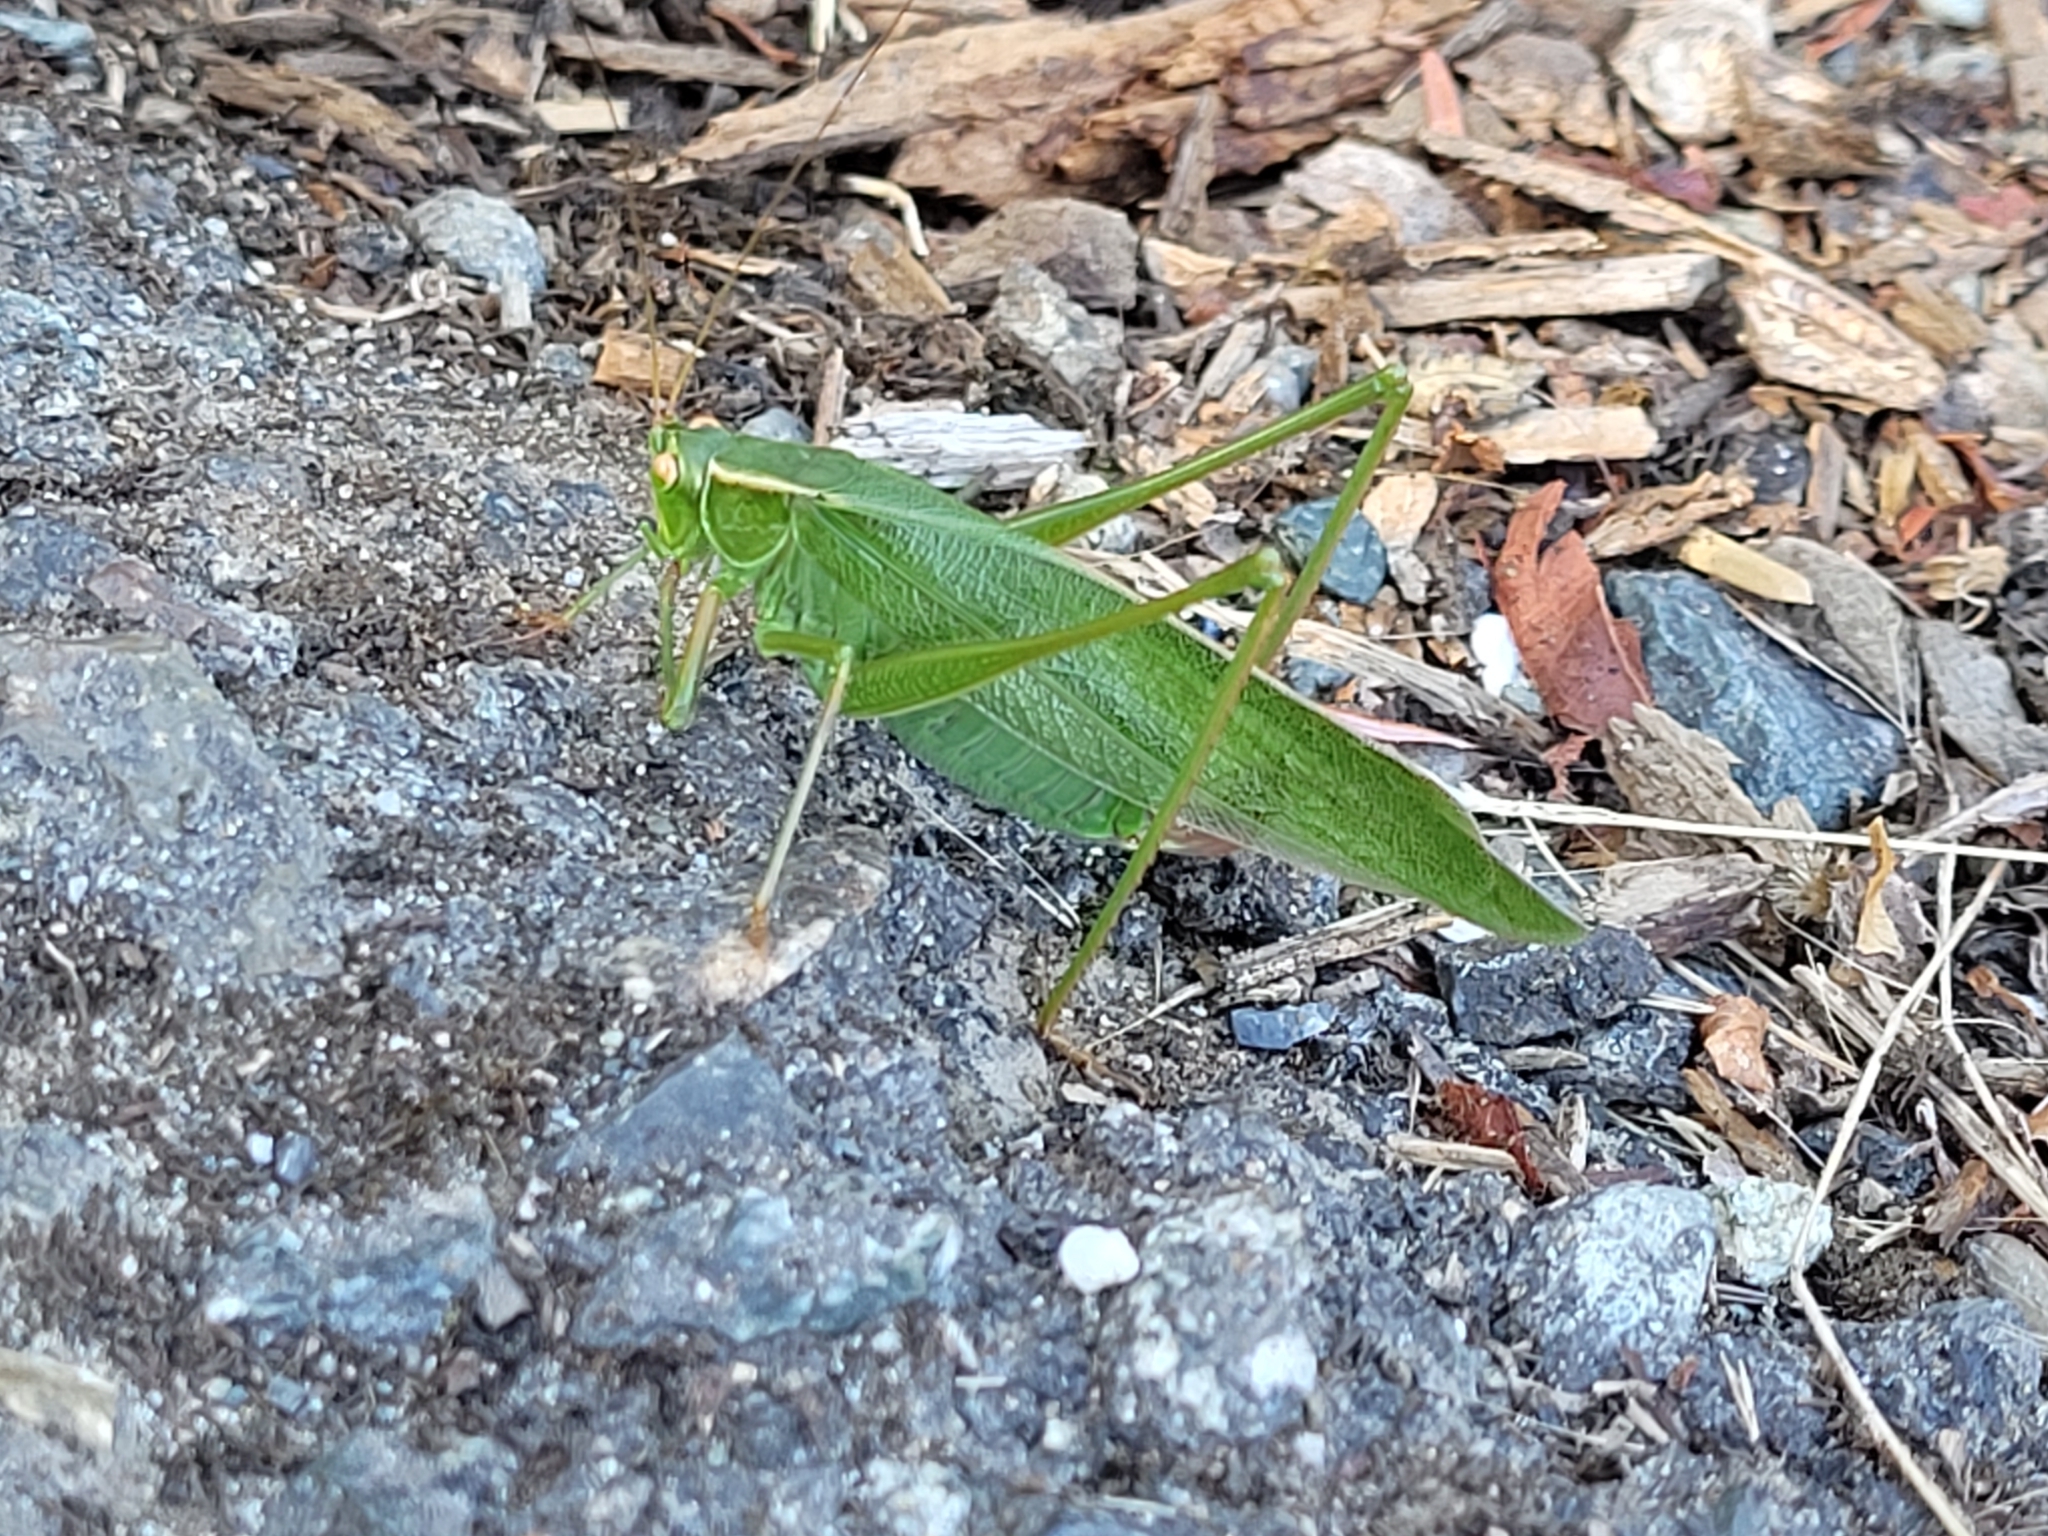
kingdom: Animalia
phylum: Arthropoda
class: Insecta
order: Orthoptera
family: Tettigoniidae
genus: Scudderia
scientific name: Scudderia furcata
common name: Fork-tailed bush katydid
